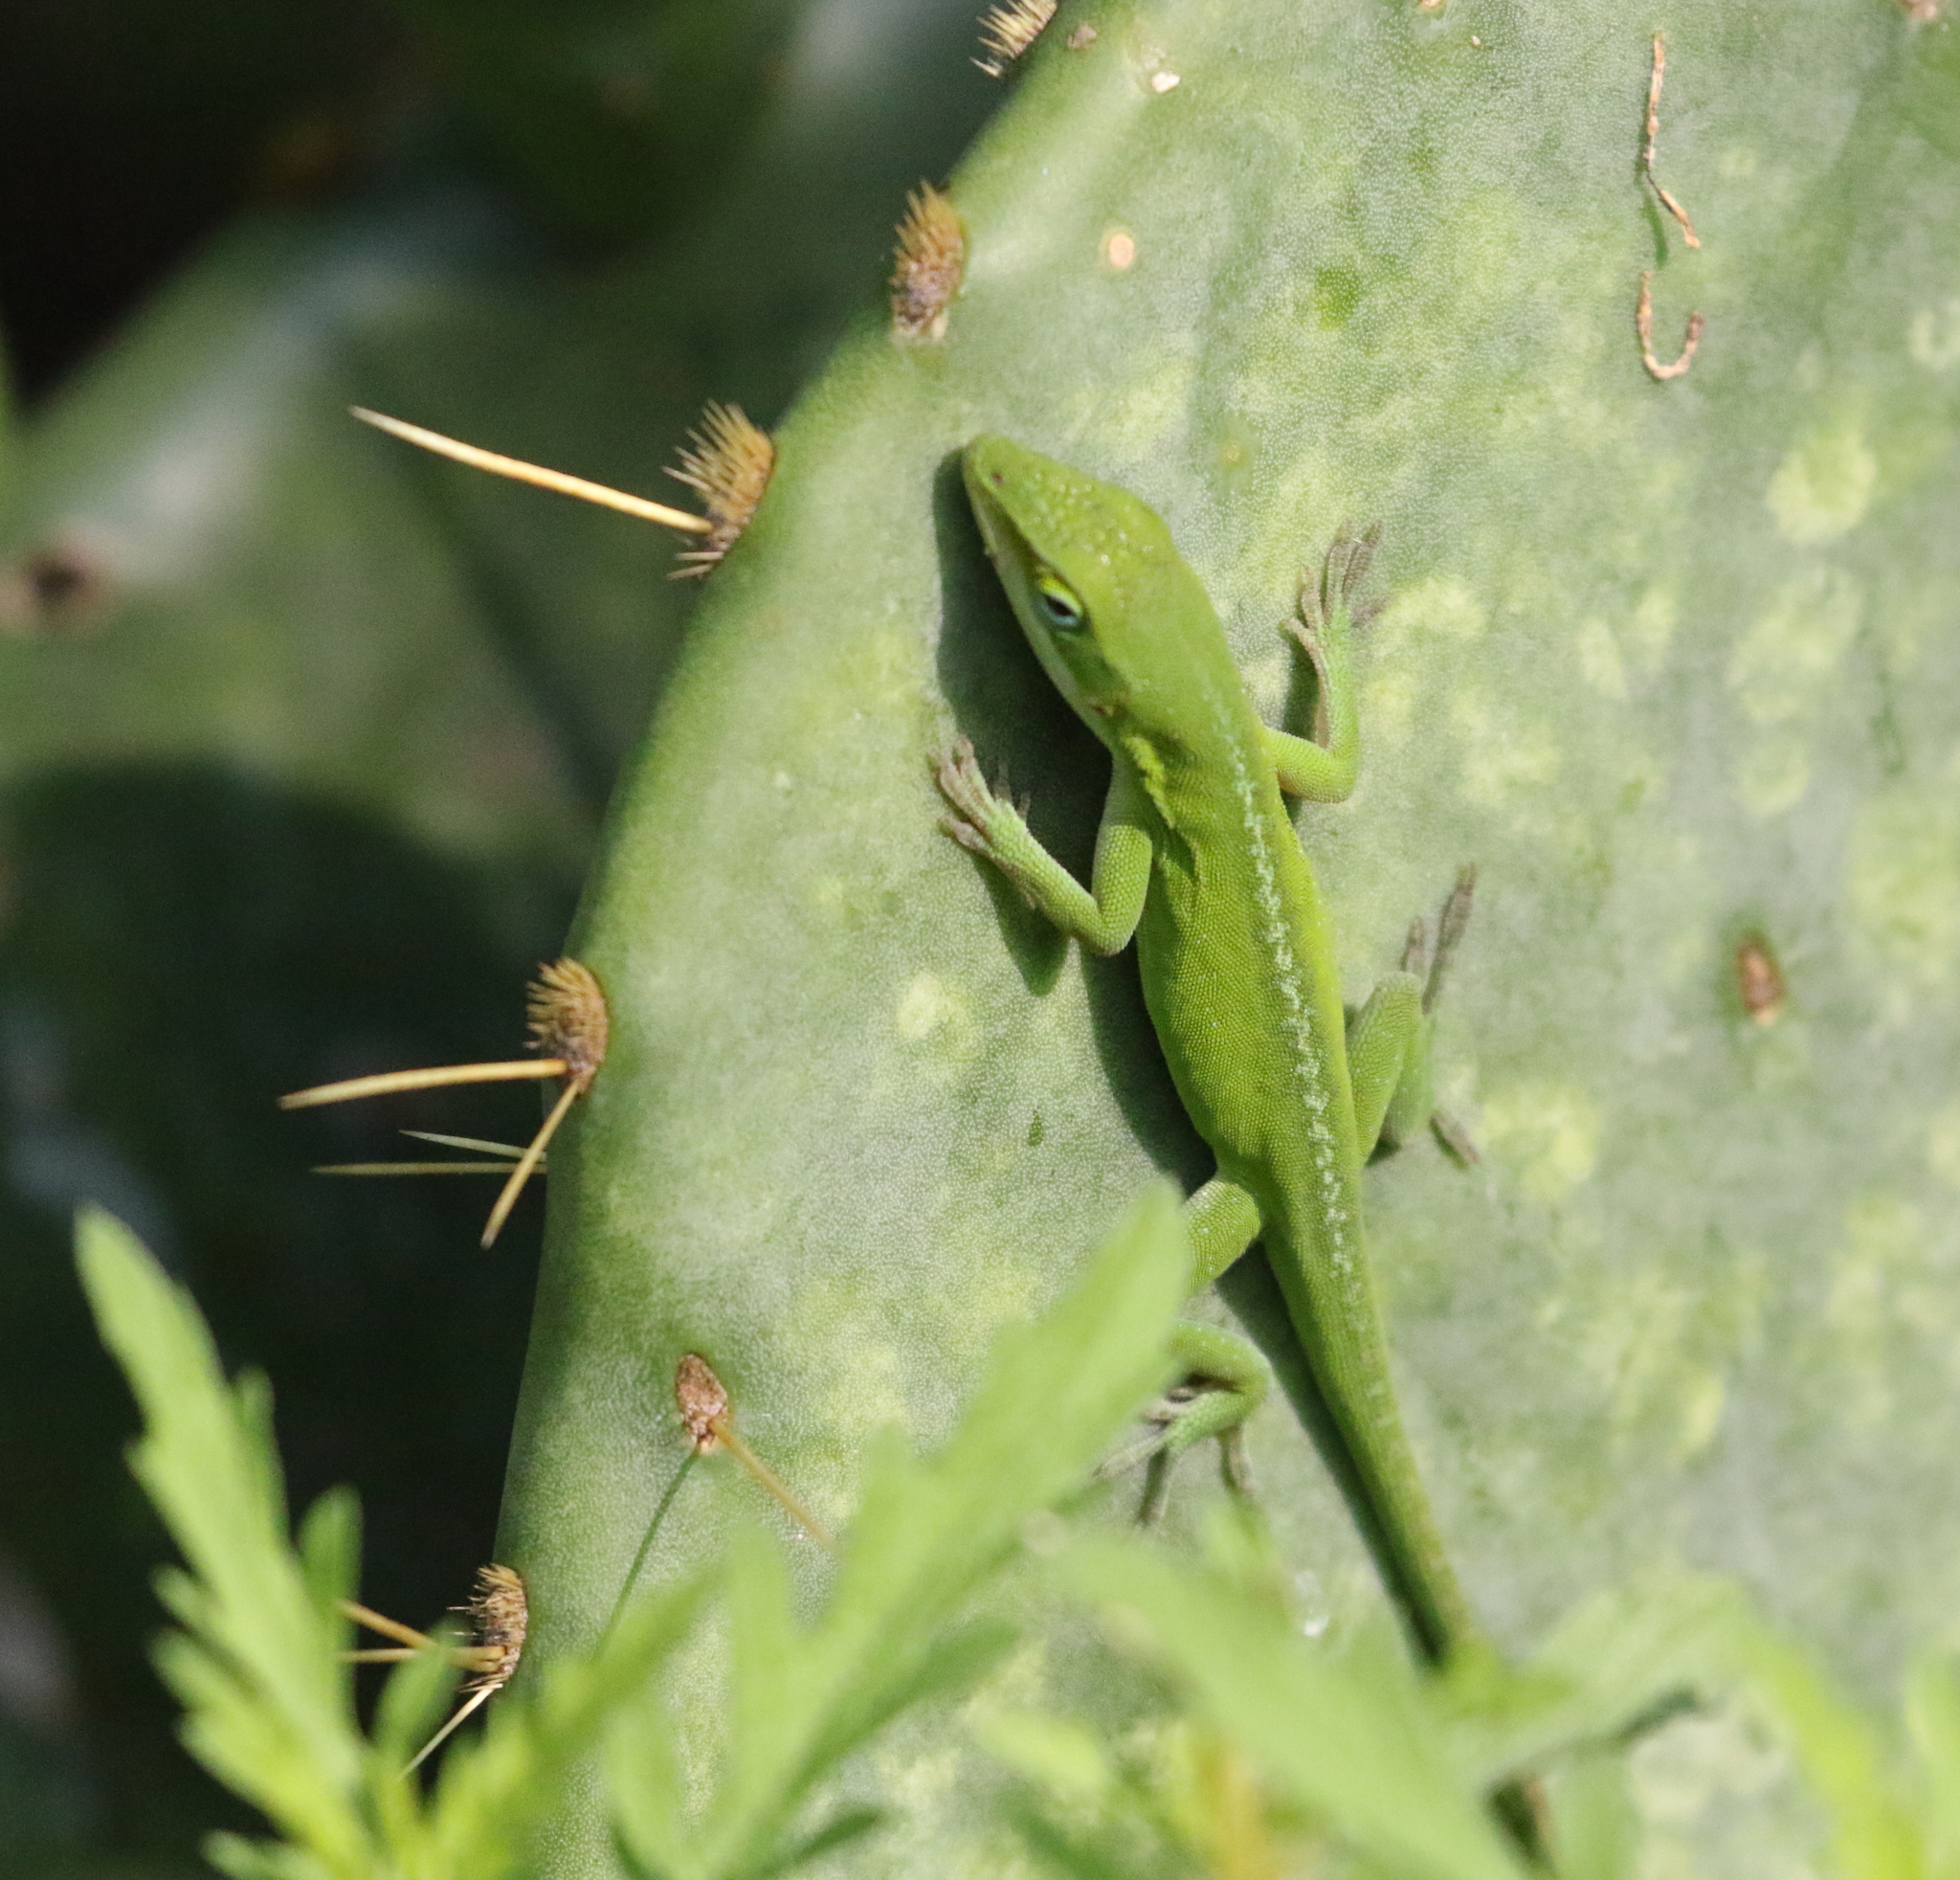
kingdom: Animalia
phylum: Chordata
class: Squamata
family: Dactyloidae
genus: Anolis
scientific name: Anolis carolinensis
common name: Green anole
